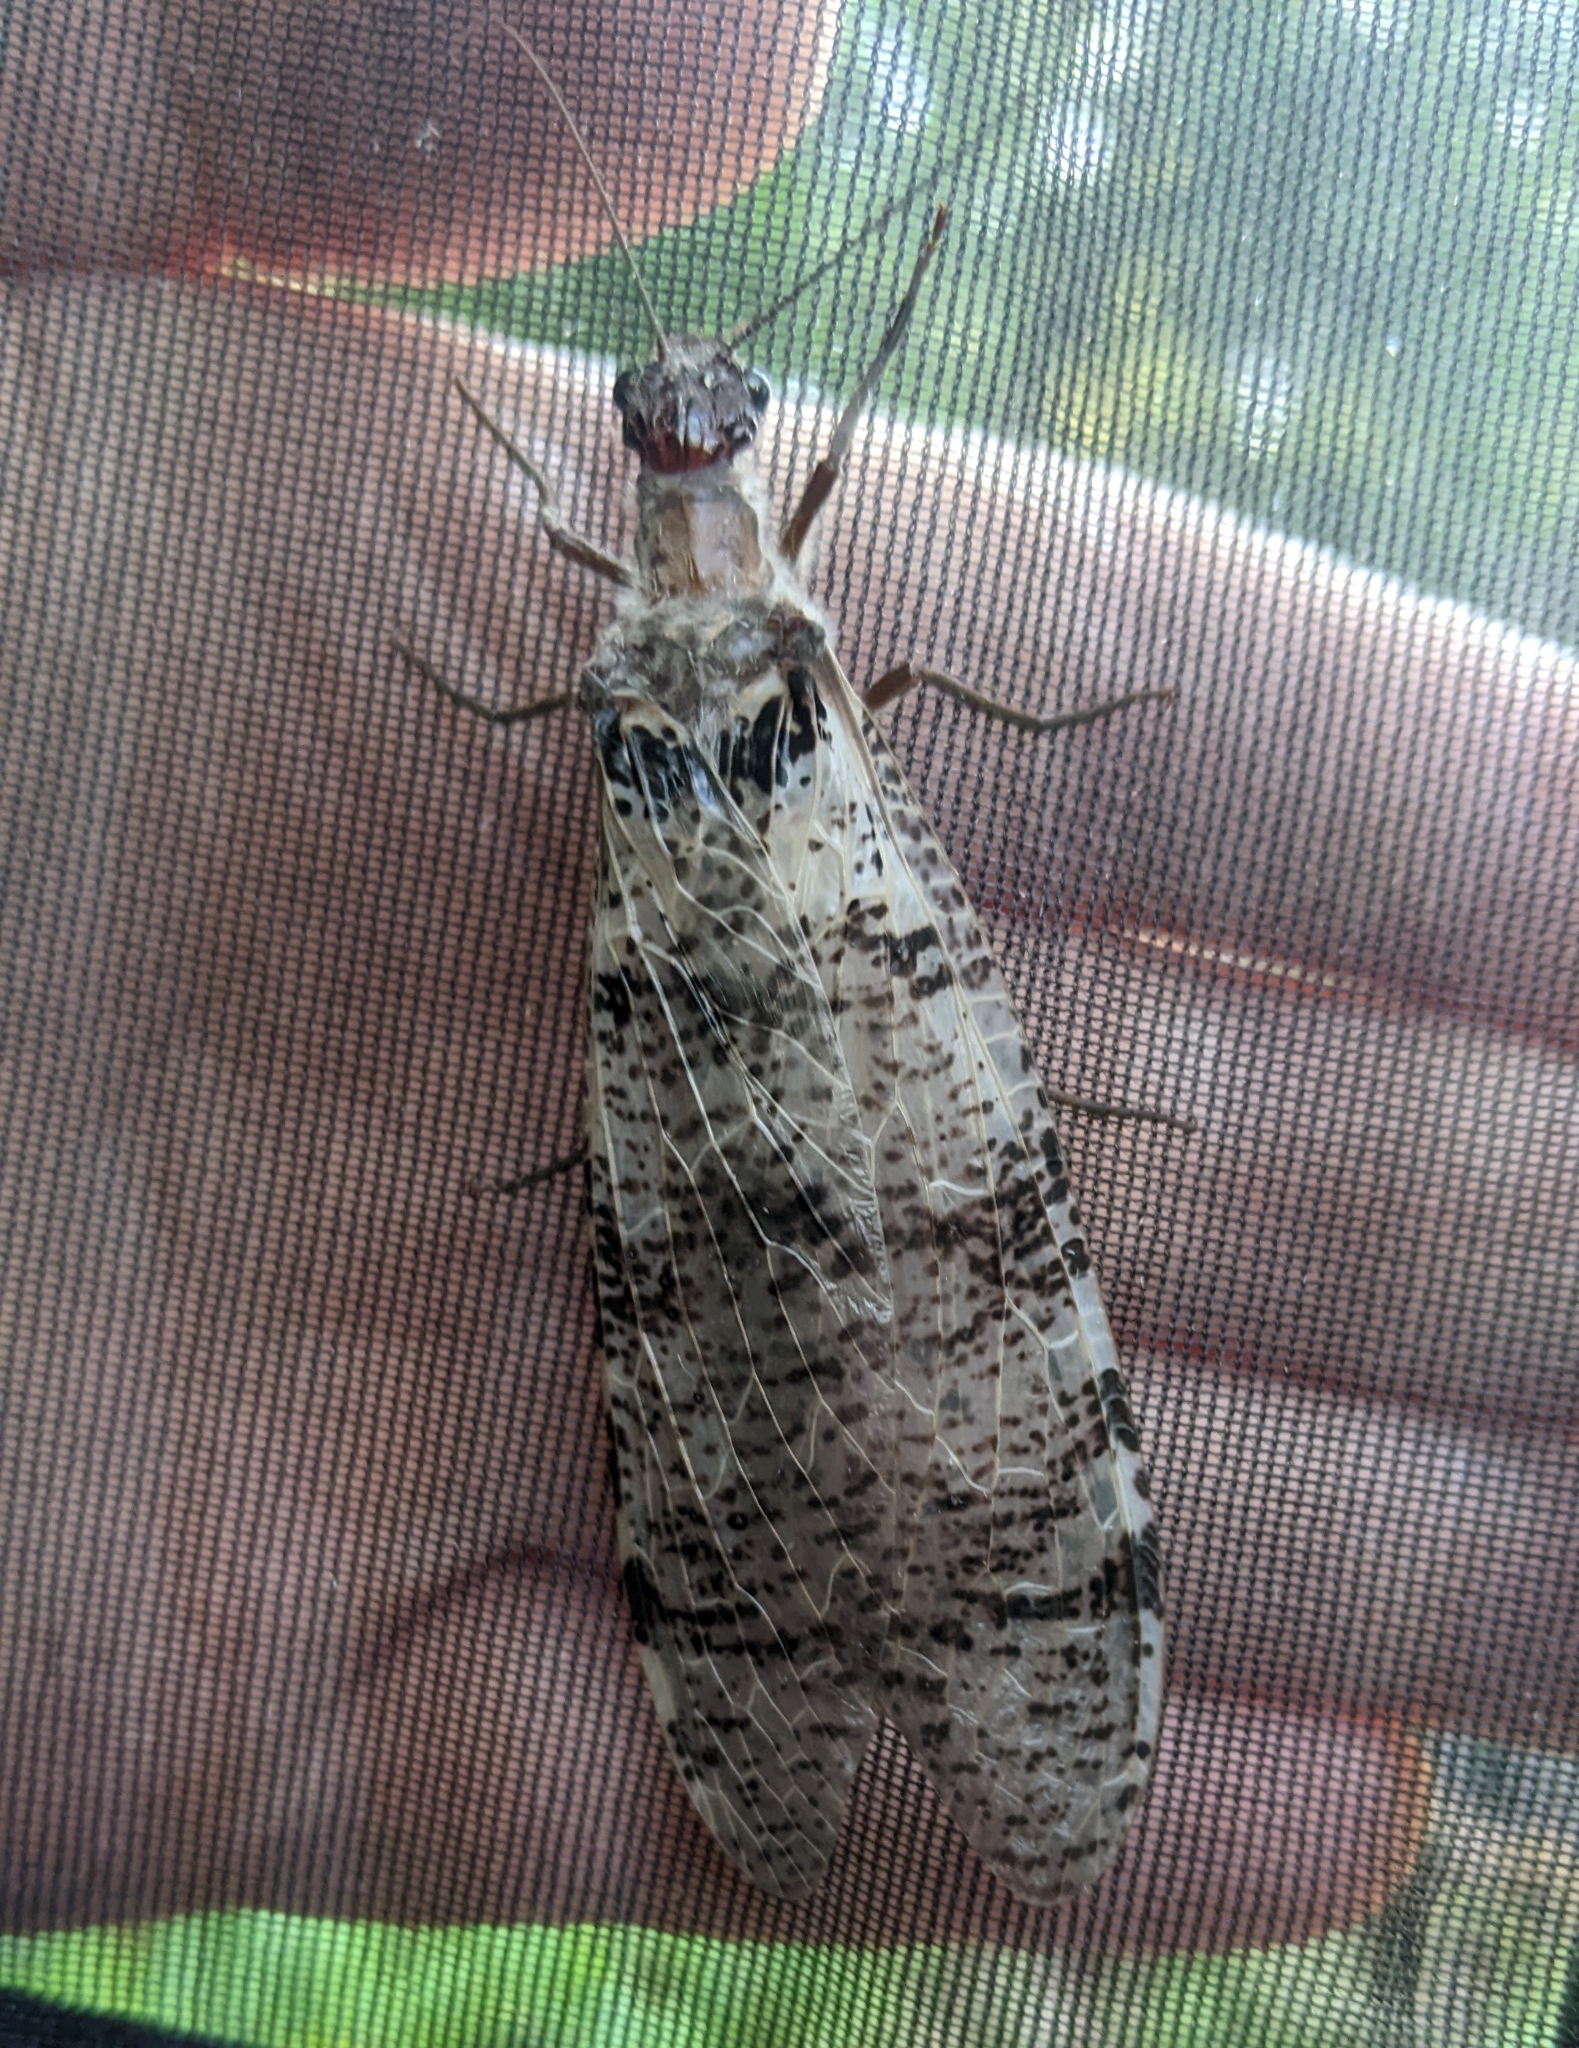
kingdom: Animalia
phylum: Arthropoda
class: Insecta
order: Megaloptera
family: Corydalidae
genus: Dysmicohermes
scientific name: Dysmicohermes disjunctus
